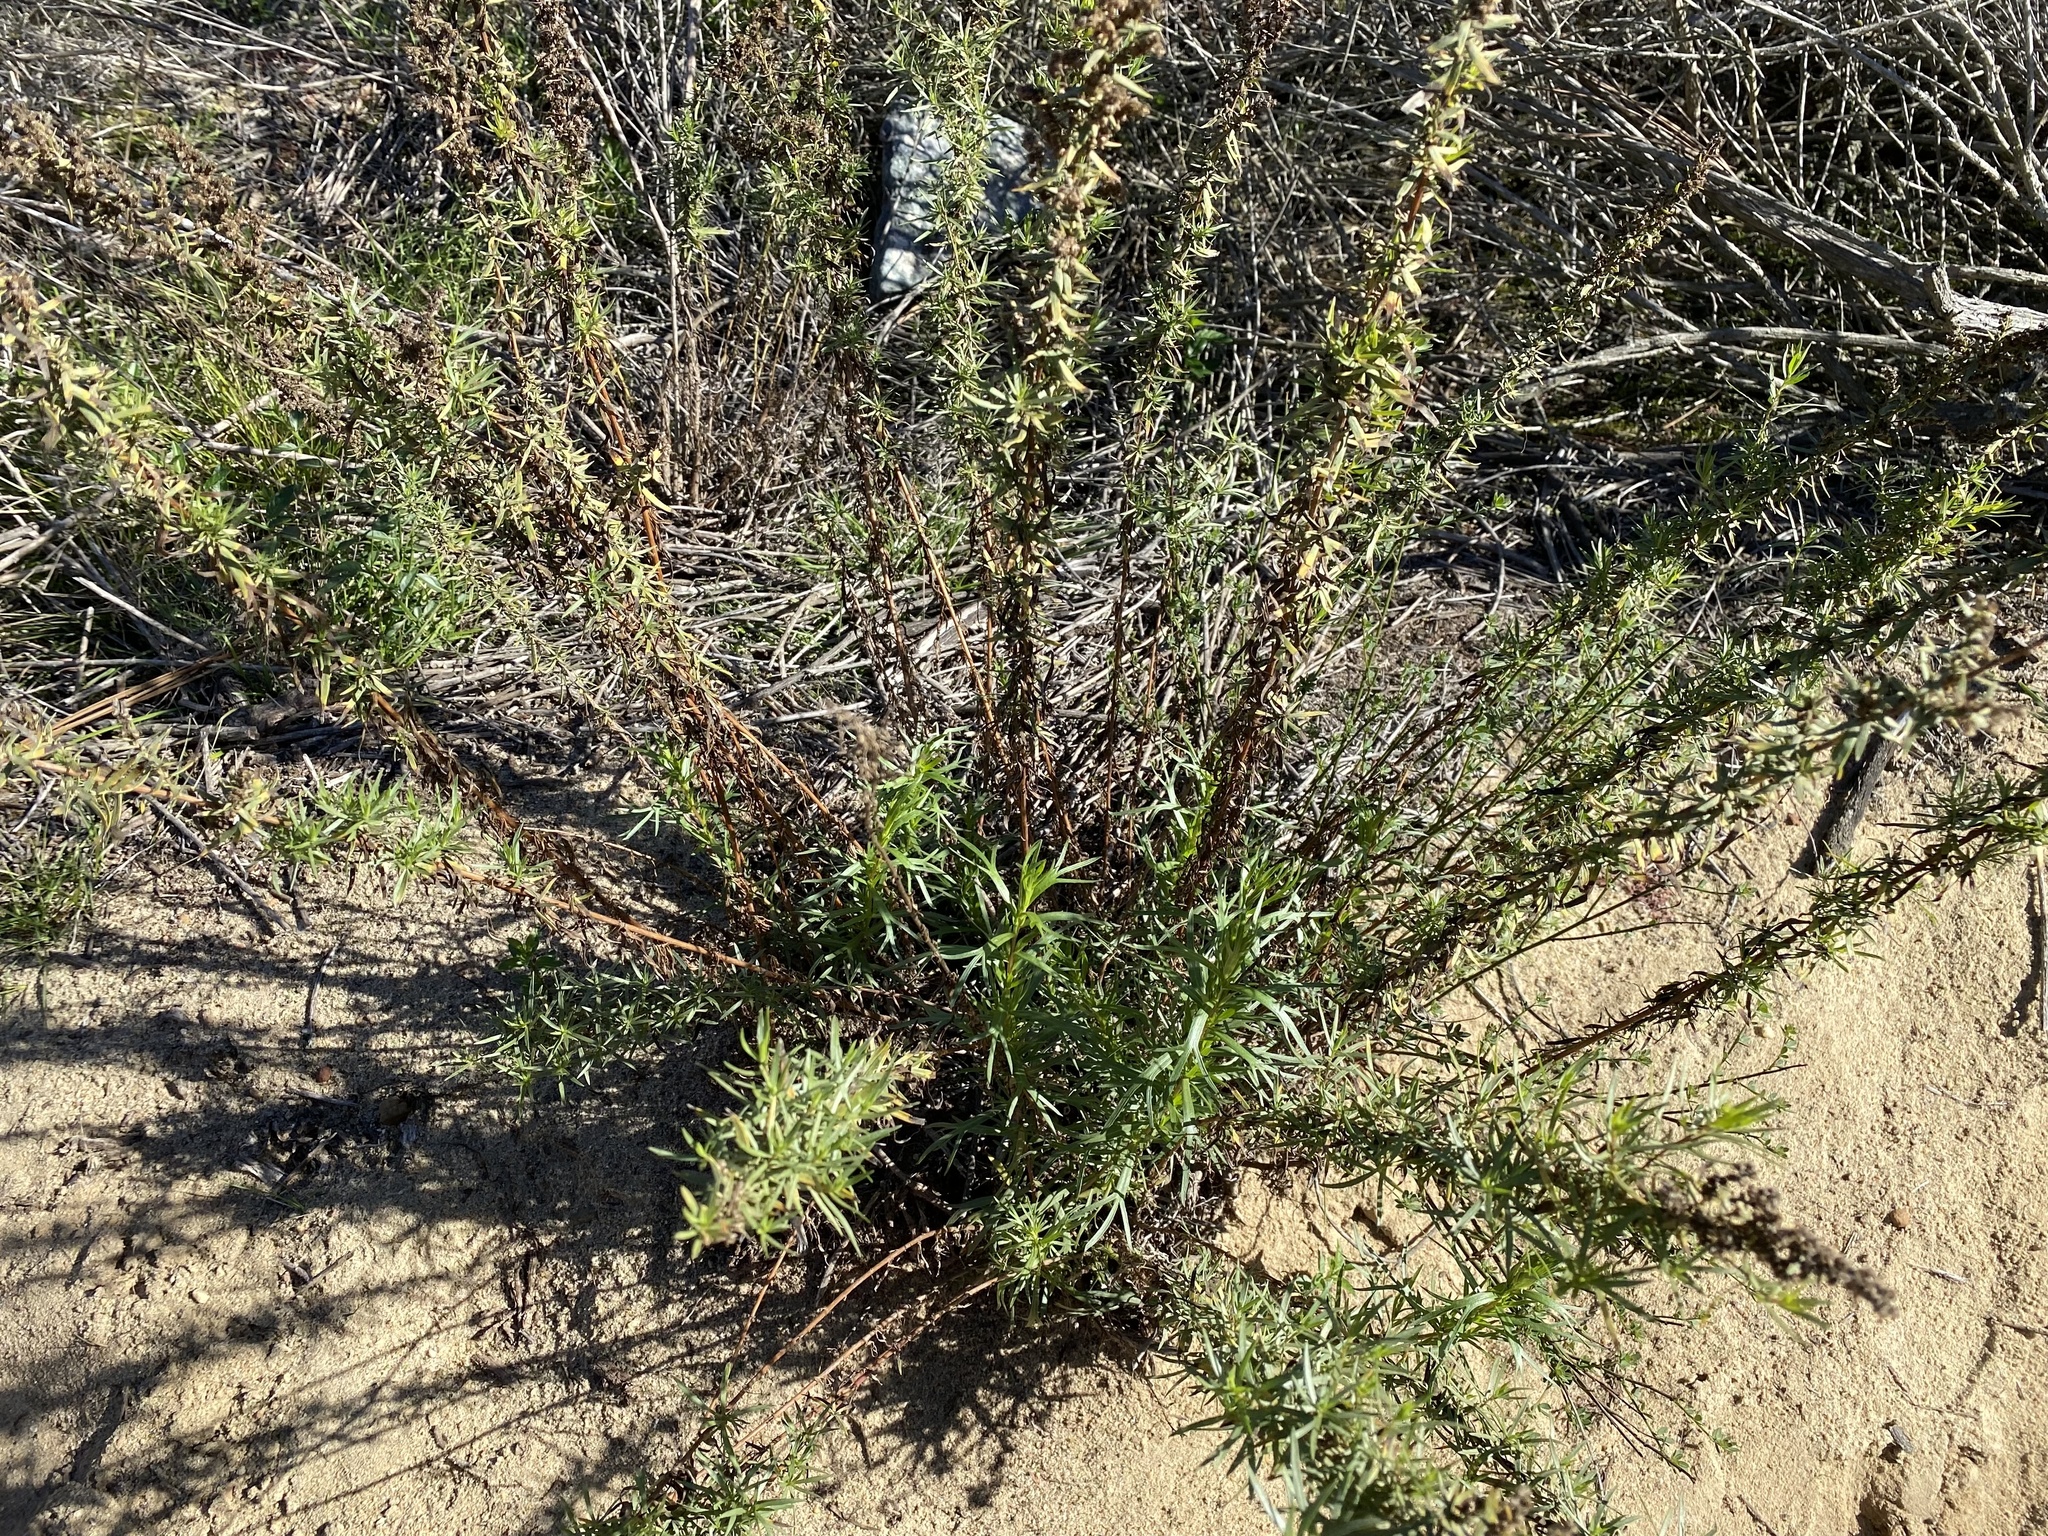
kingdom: Plantae
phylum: Tracheophyta
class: Magnoliopsida
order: Asterales
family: Asteraceae
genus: Artemisia
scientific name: Artemisia dracunculus
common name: Tarragon
